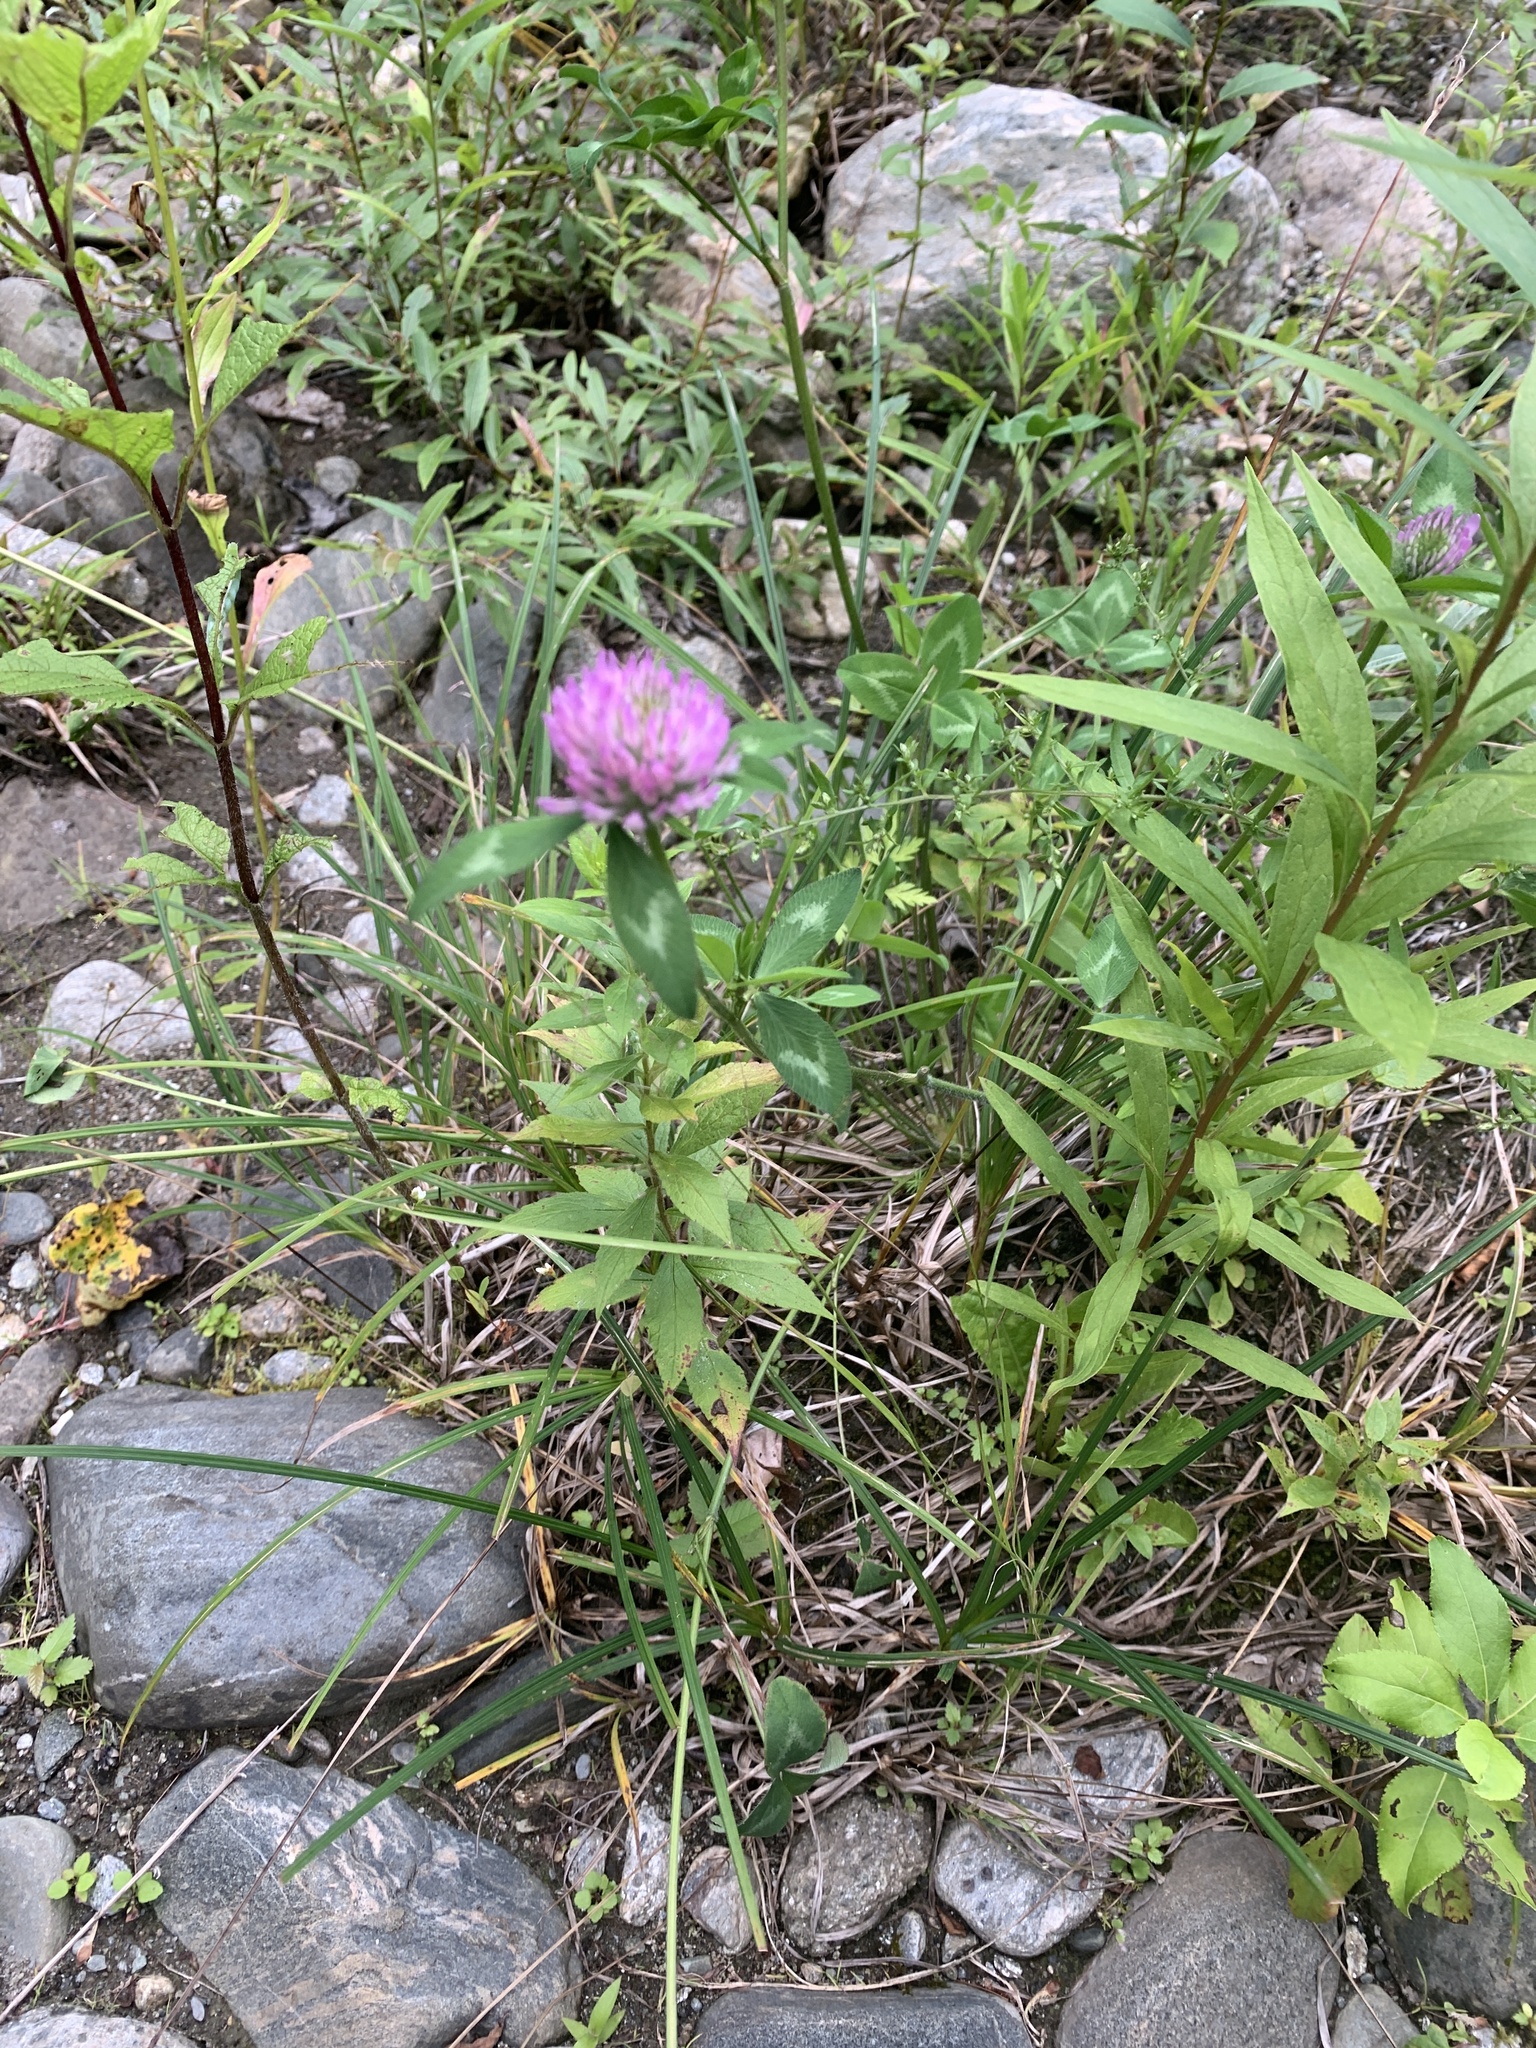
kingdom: Plantae
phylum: Tracheophyta
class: Magnoliopsida
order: Fabales
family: Fabaceae
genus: Trifolium
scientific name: Trifolium pratense
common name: Red clover
